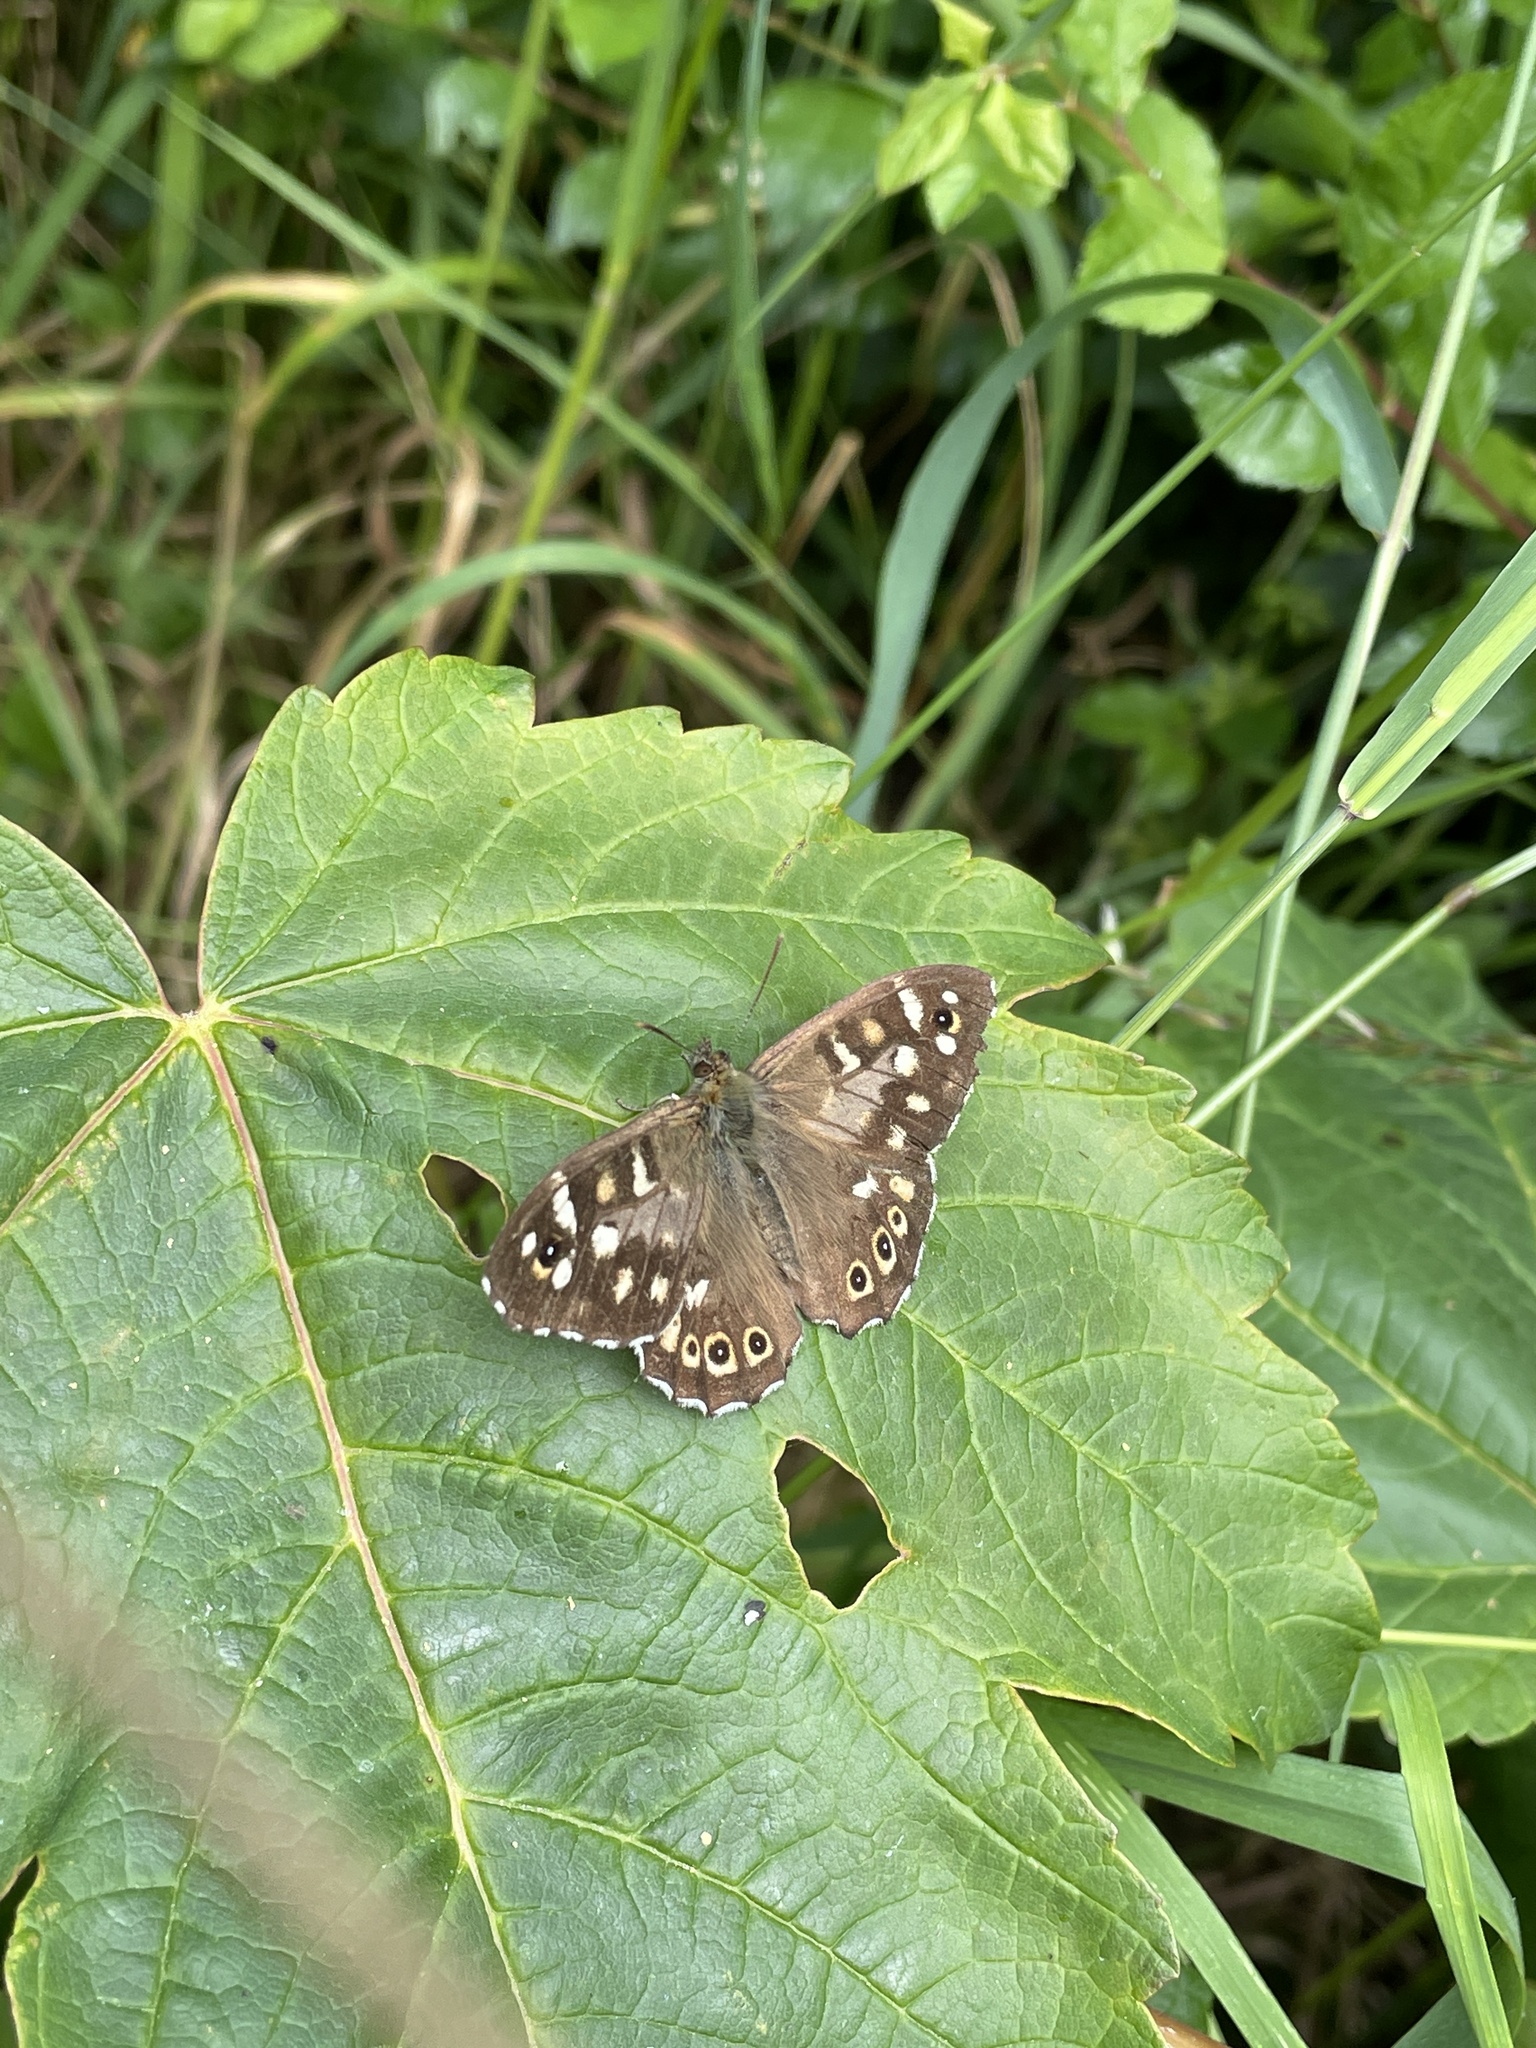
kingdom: Animalia
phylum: Arthropoda
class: Insecta
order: Lepidoptera
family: Nymphalidae
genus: Pararge
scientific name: Pararge aegeria
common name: Speckled wood
